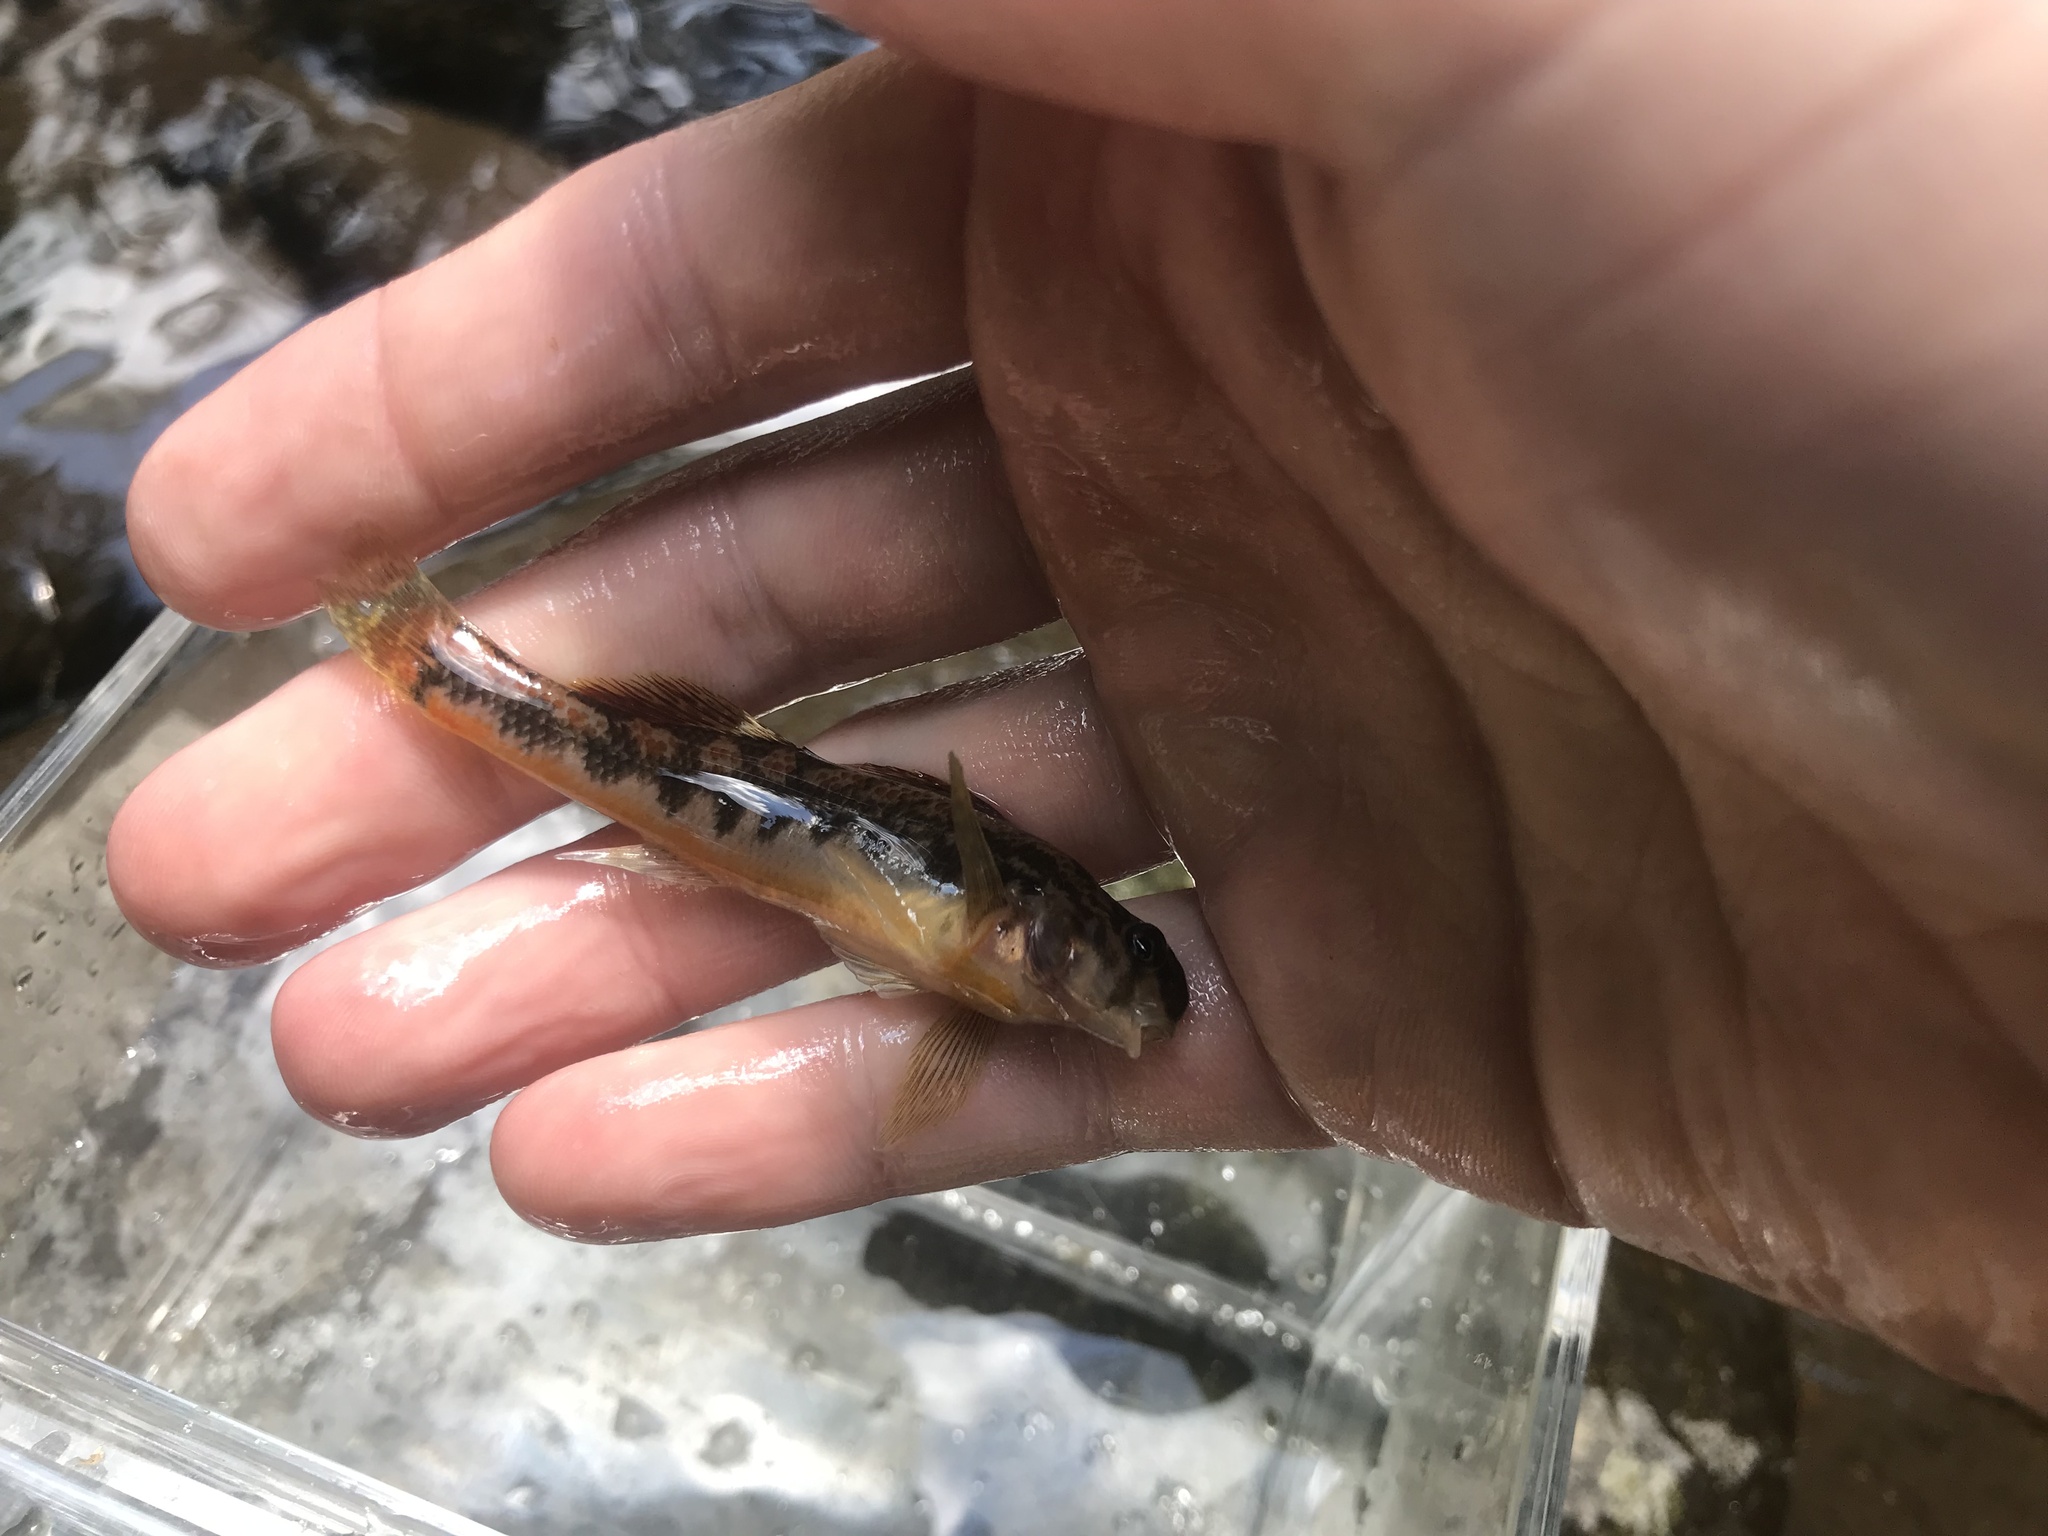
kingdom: Animalia
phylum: Chordata
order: Perciformes
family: Percidae
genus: Etheostoma
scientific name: Etheostoma simoterum
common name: Snubnose darter
